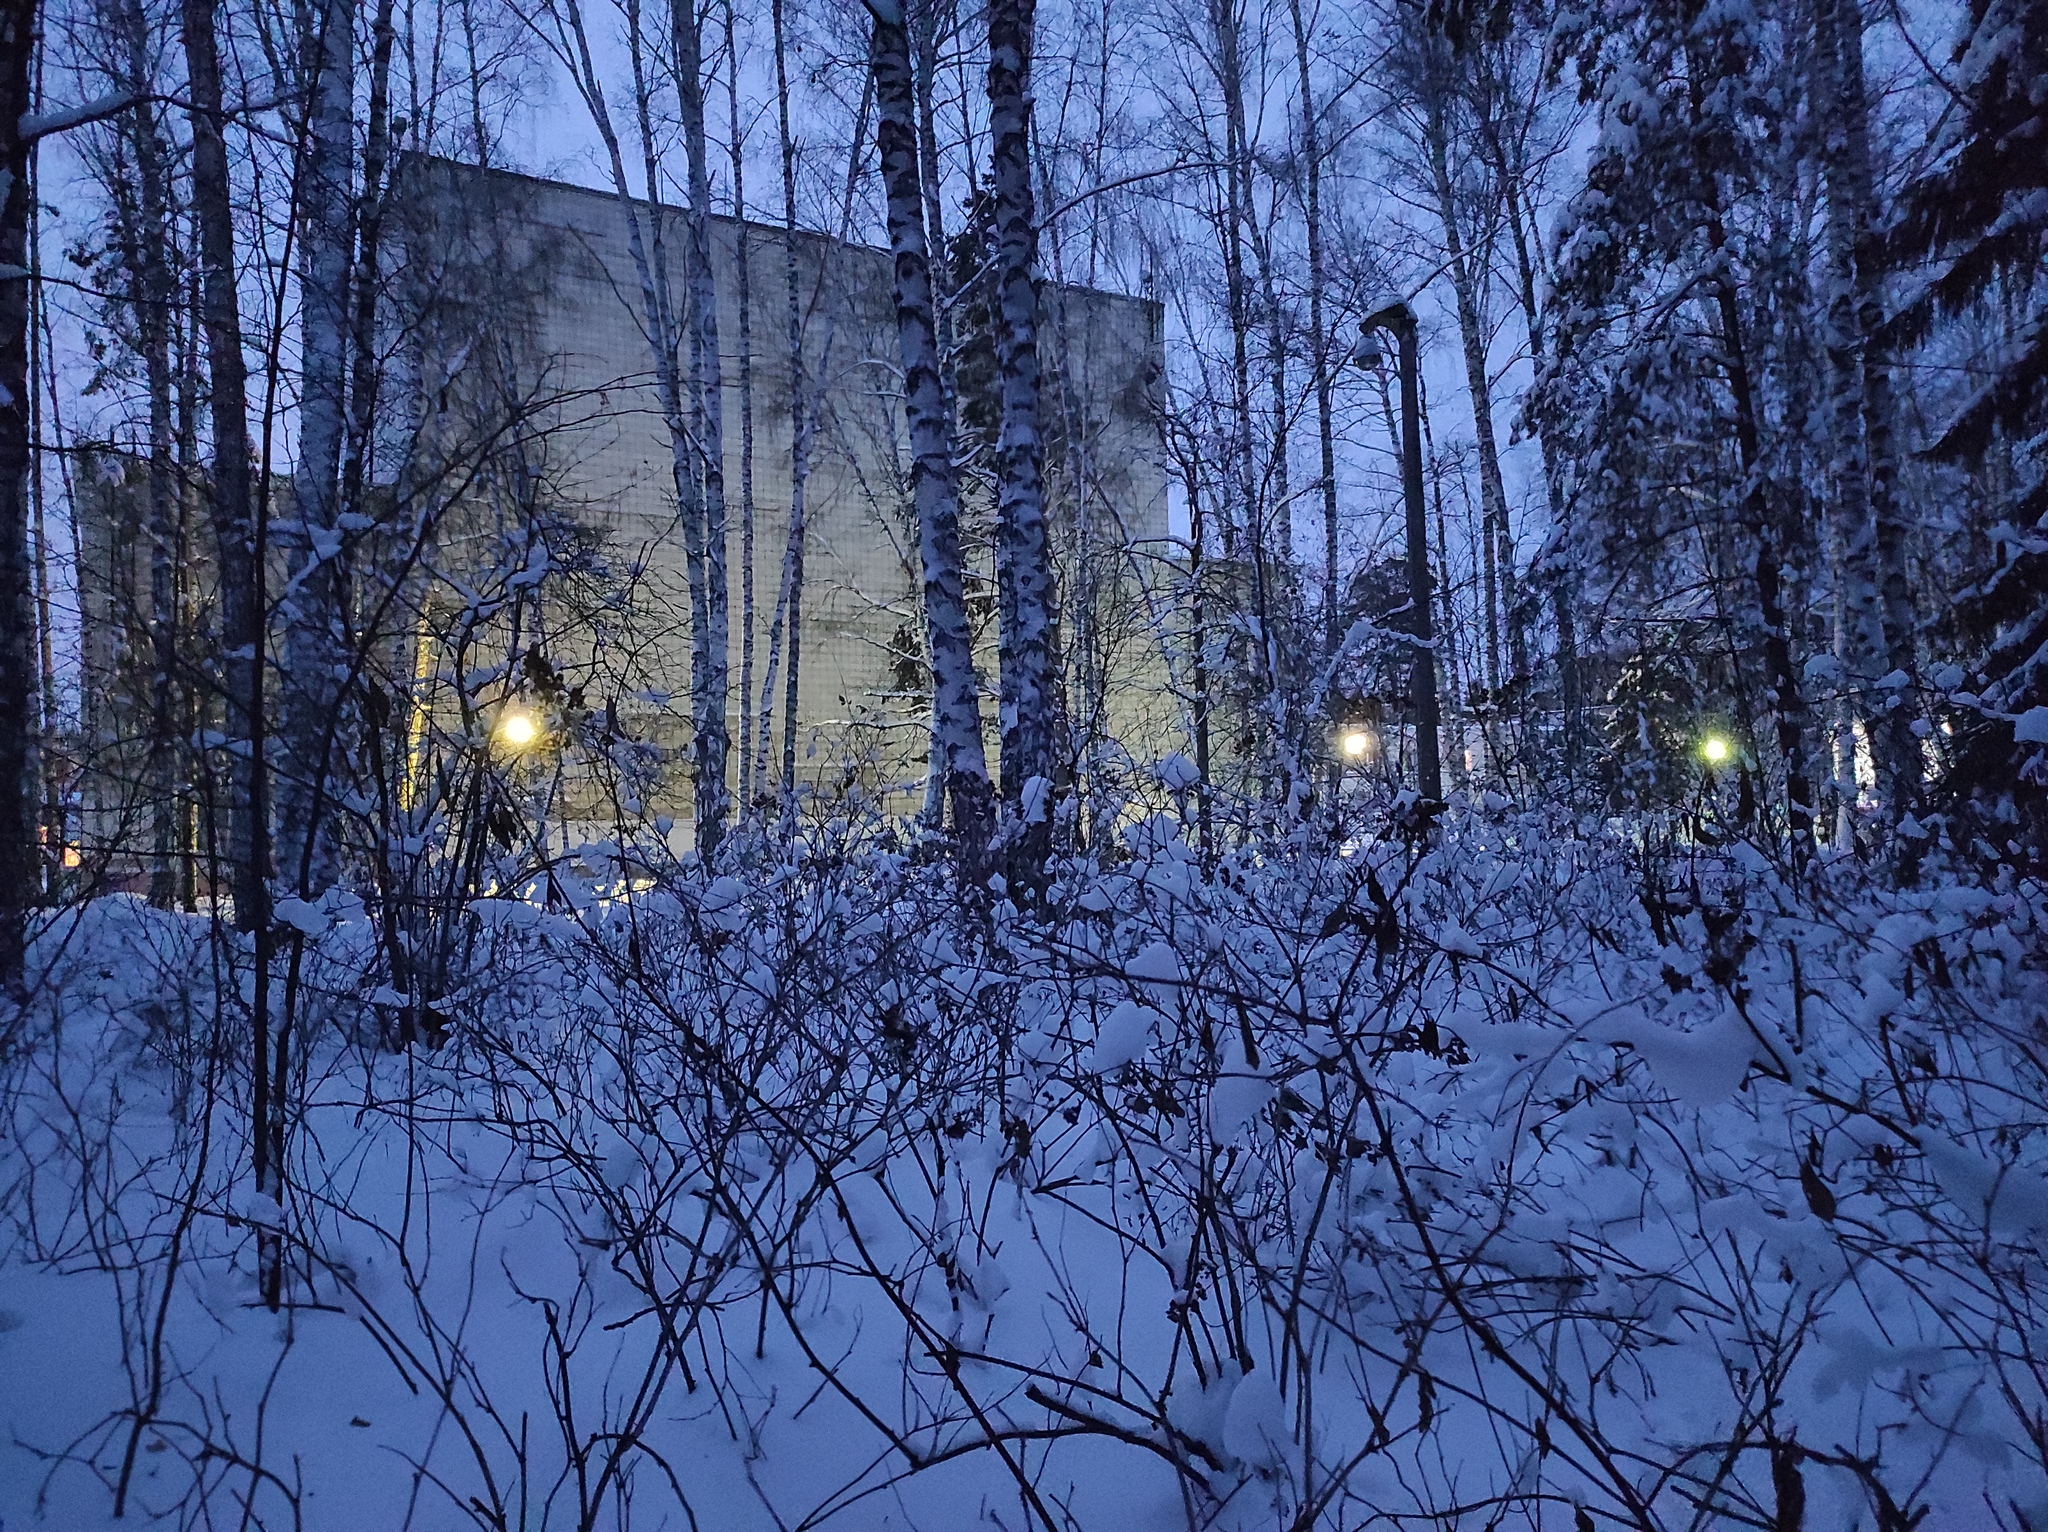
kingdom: Plantae
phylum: Tracheophyta
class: Magnoliopsida
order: Fagales
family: Betulaceae
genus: Betula
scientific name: Betula pendula
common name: Silver birch
